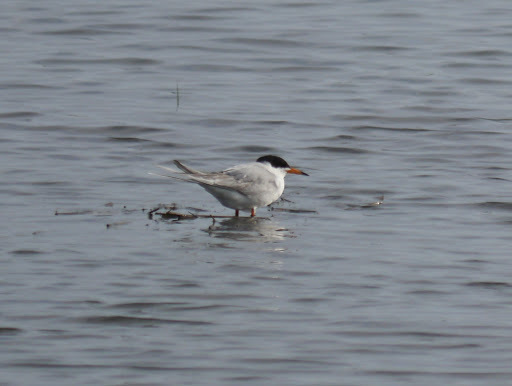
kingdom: Animalia
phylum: Chordata
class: Aves
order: Charadriiformes
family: Laridae
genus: Sterna
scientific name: Sterna forsteri
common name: Forster's tern
